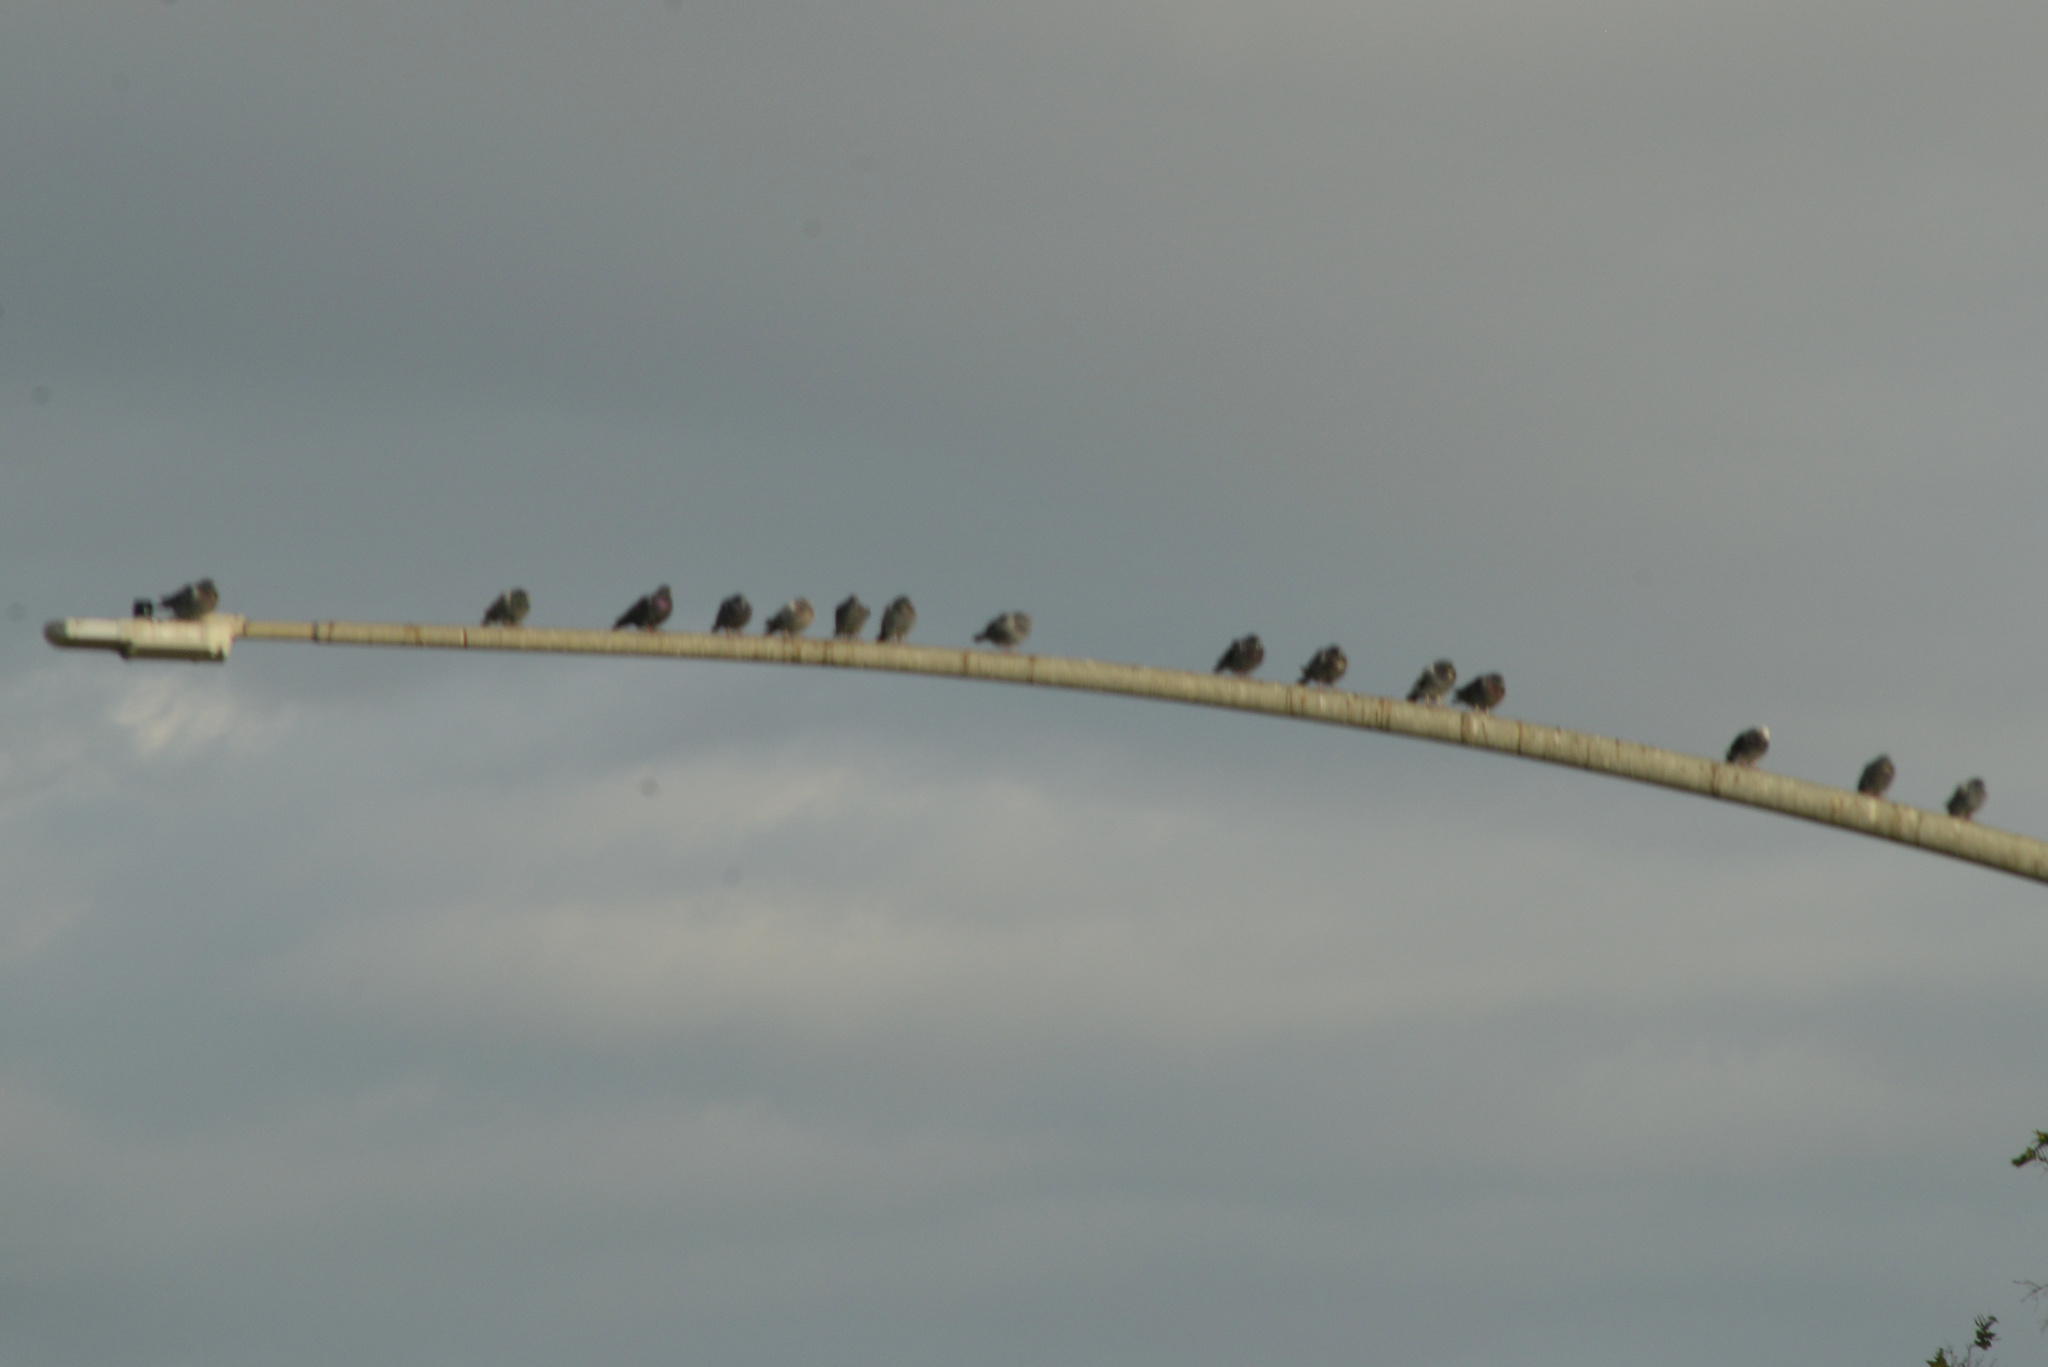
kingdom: Animalia
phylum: Chordata
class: Aves
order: Columbiformes
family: Columbidae
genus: Columba
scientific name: Columba livia
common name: Rock pigeon
